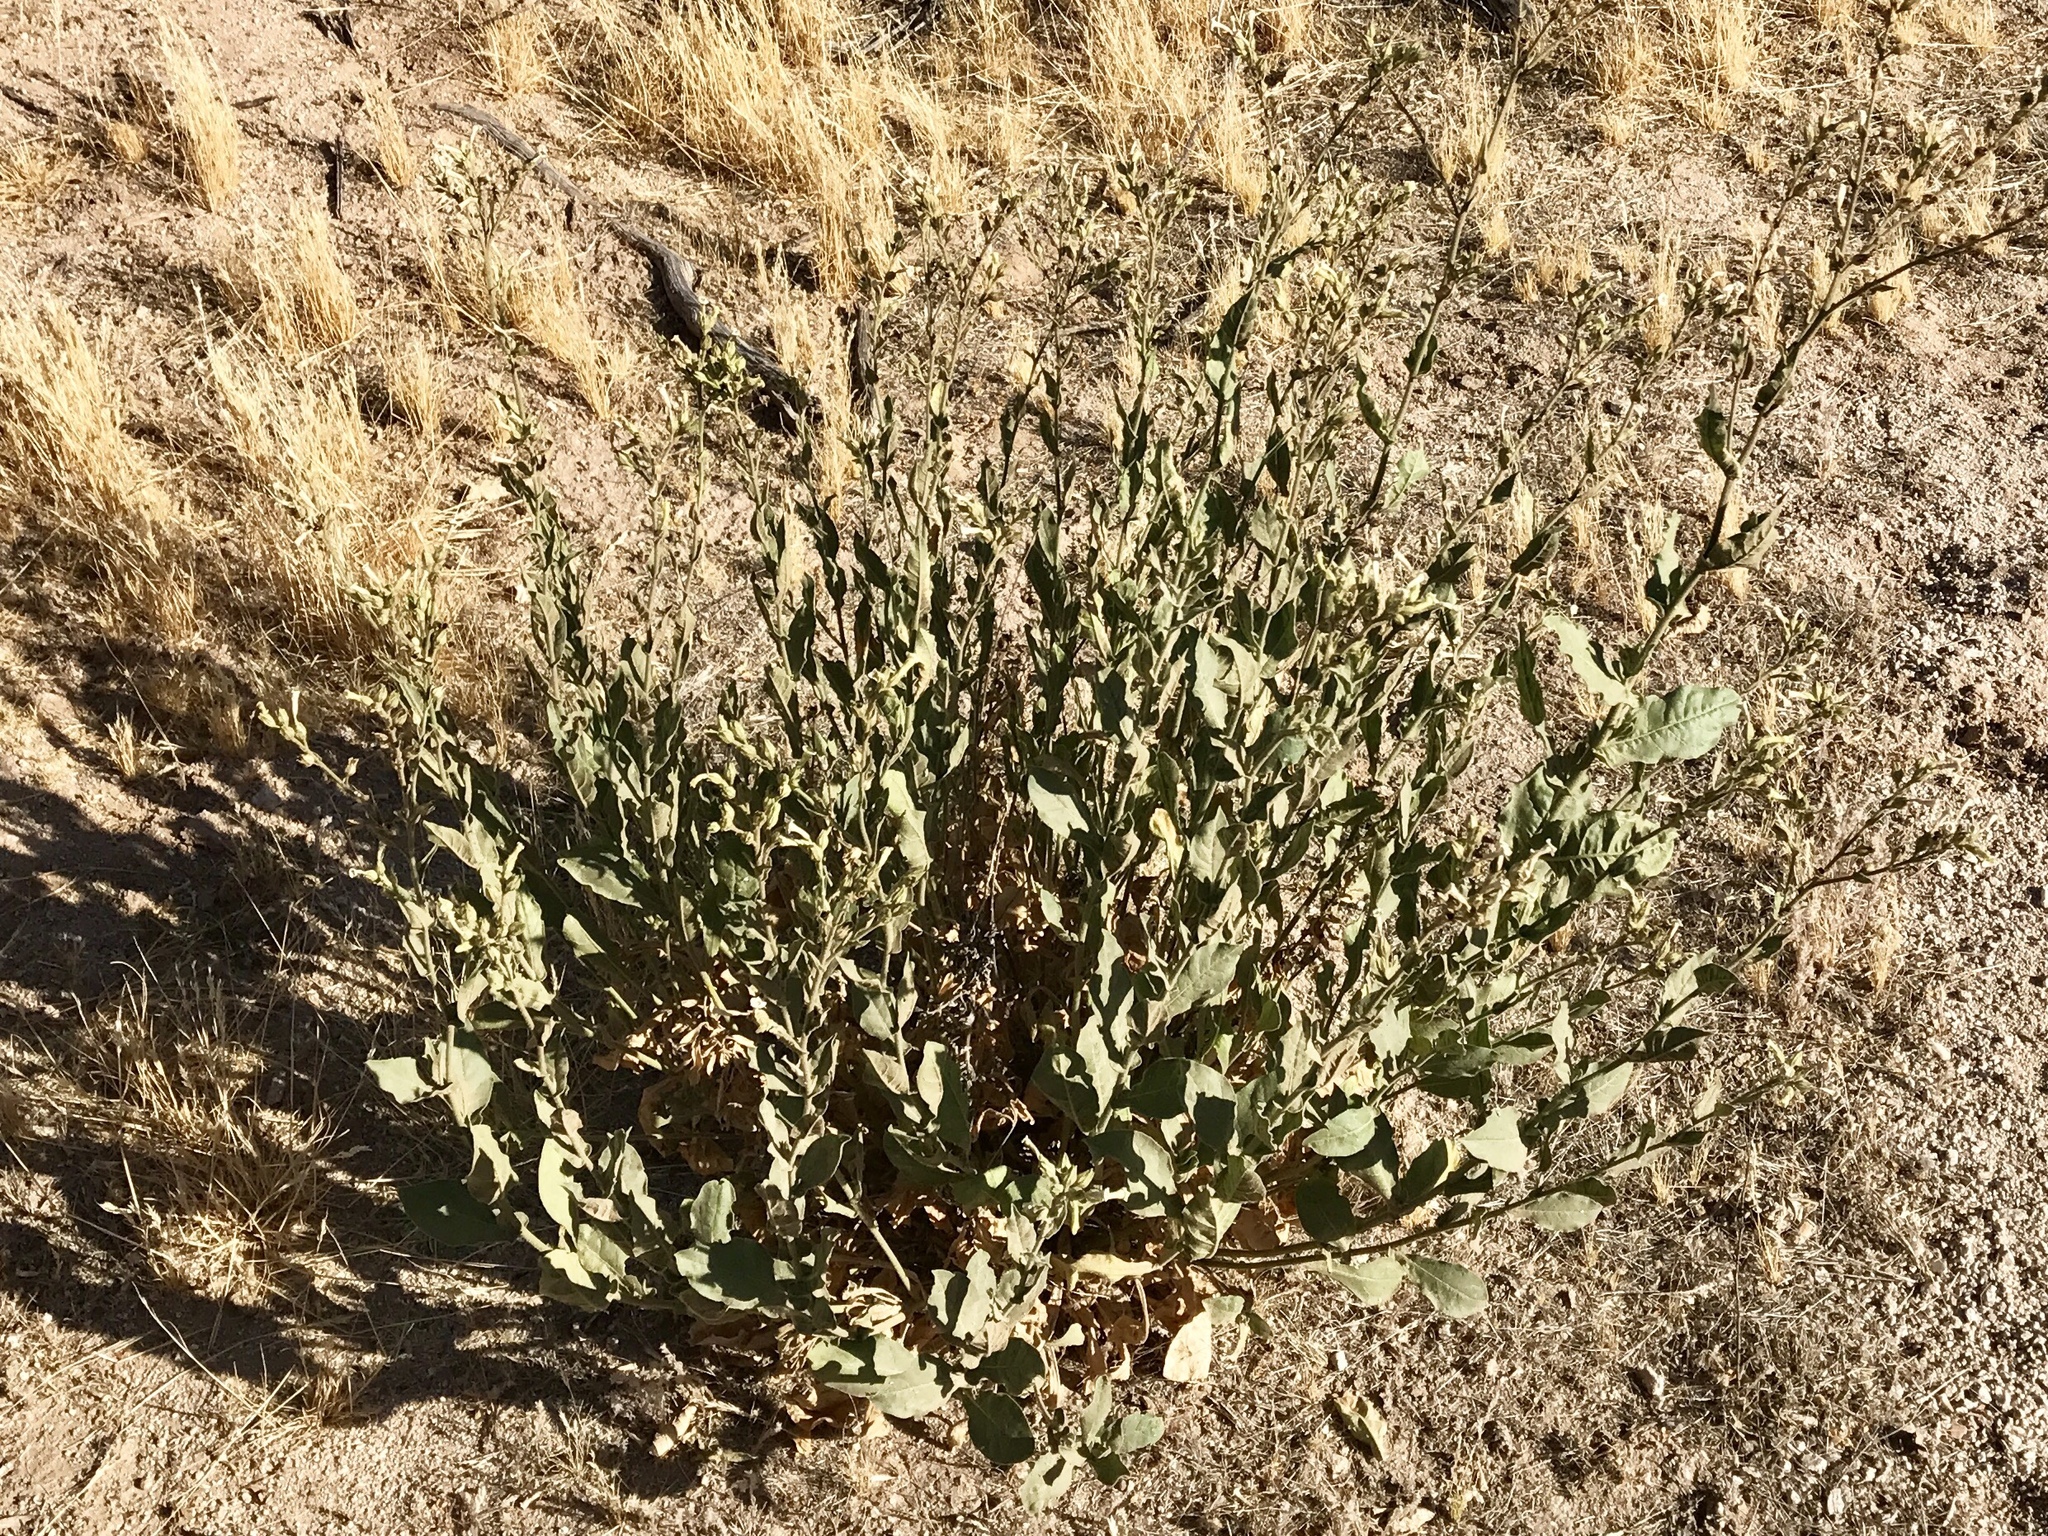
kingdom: Plantae
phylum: Tracheophyta
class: Magnoliopsida
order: Solanales
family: Solanaceae
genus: Nicotiana
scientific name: Nicotiana obtusifolia
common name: Desert tobacco
